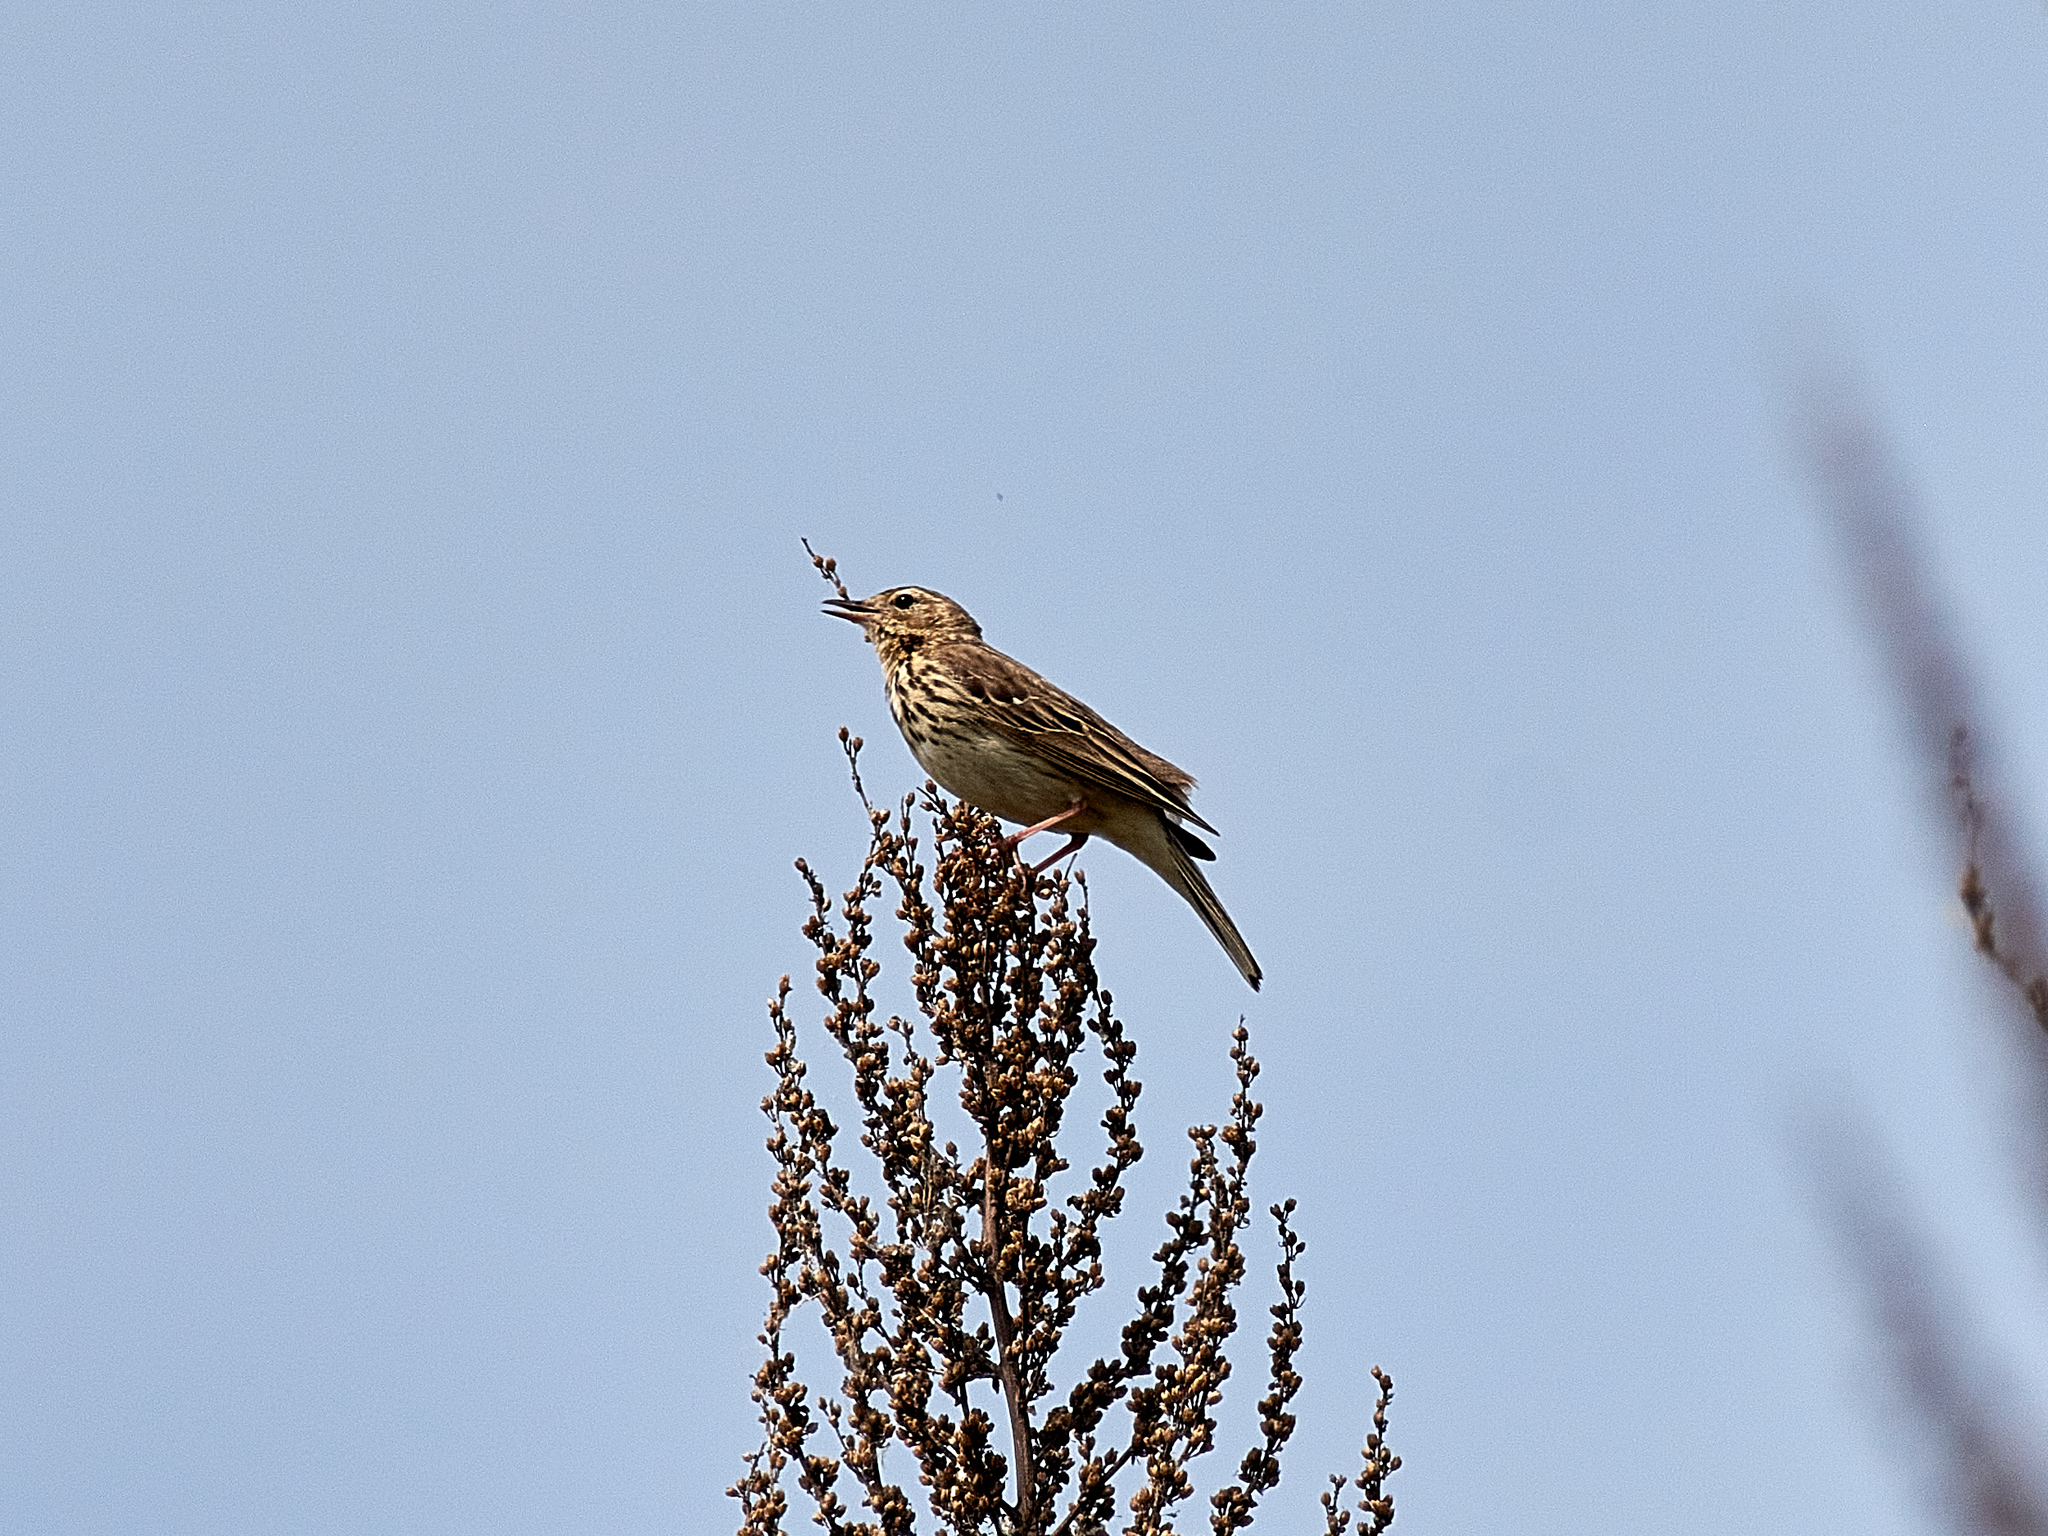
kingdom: Animalia
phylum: Chordata
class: Aves
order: Passeriformes
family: Motacillidae
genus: Anthus
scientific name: Anthus trivialis
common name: Tree pipit
